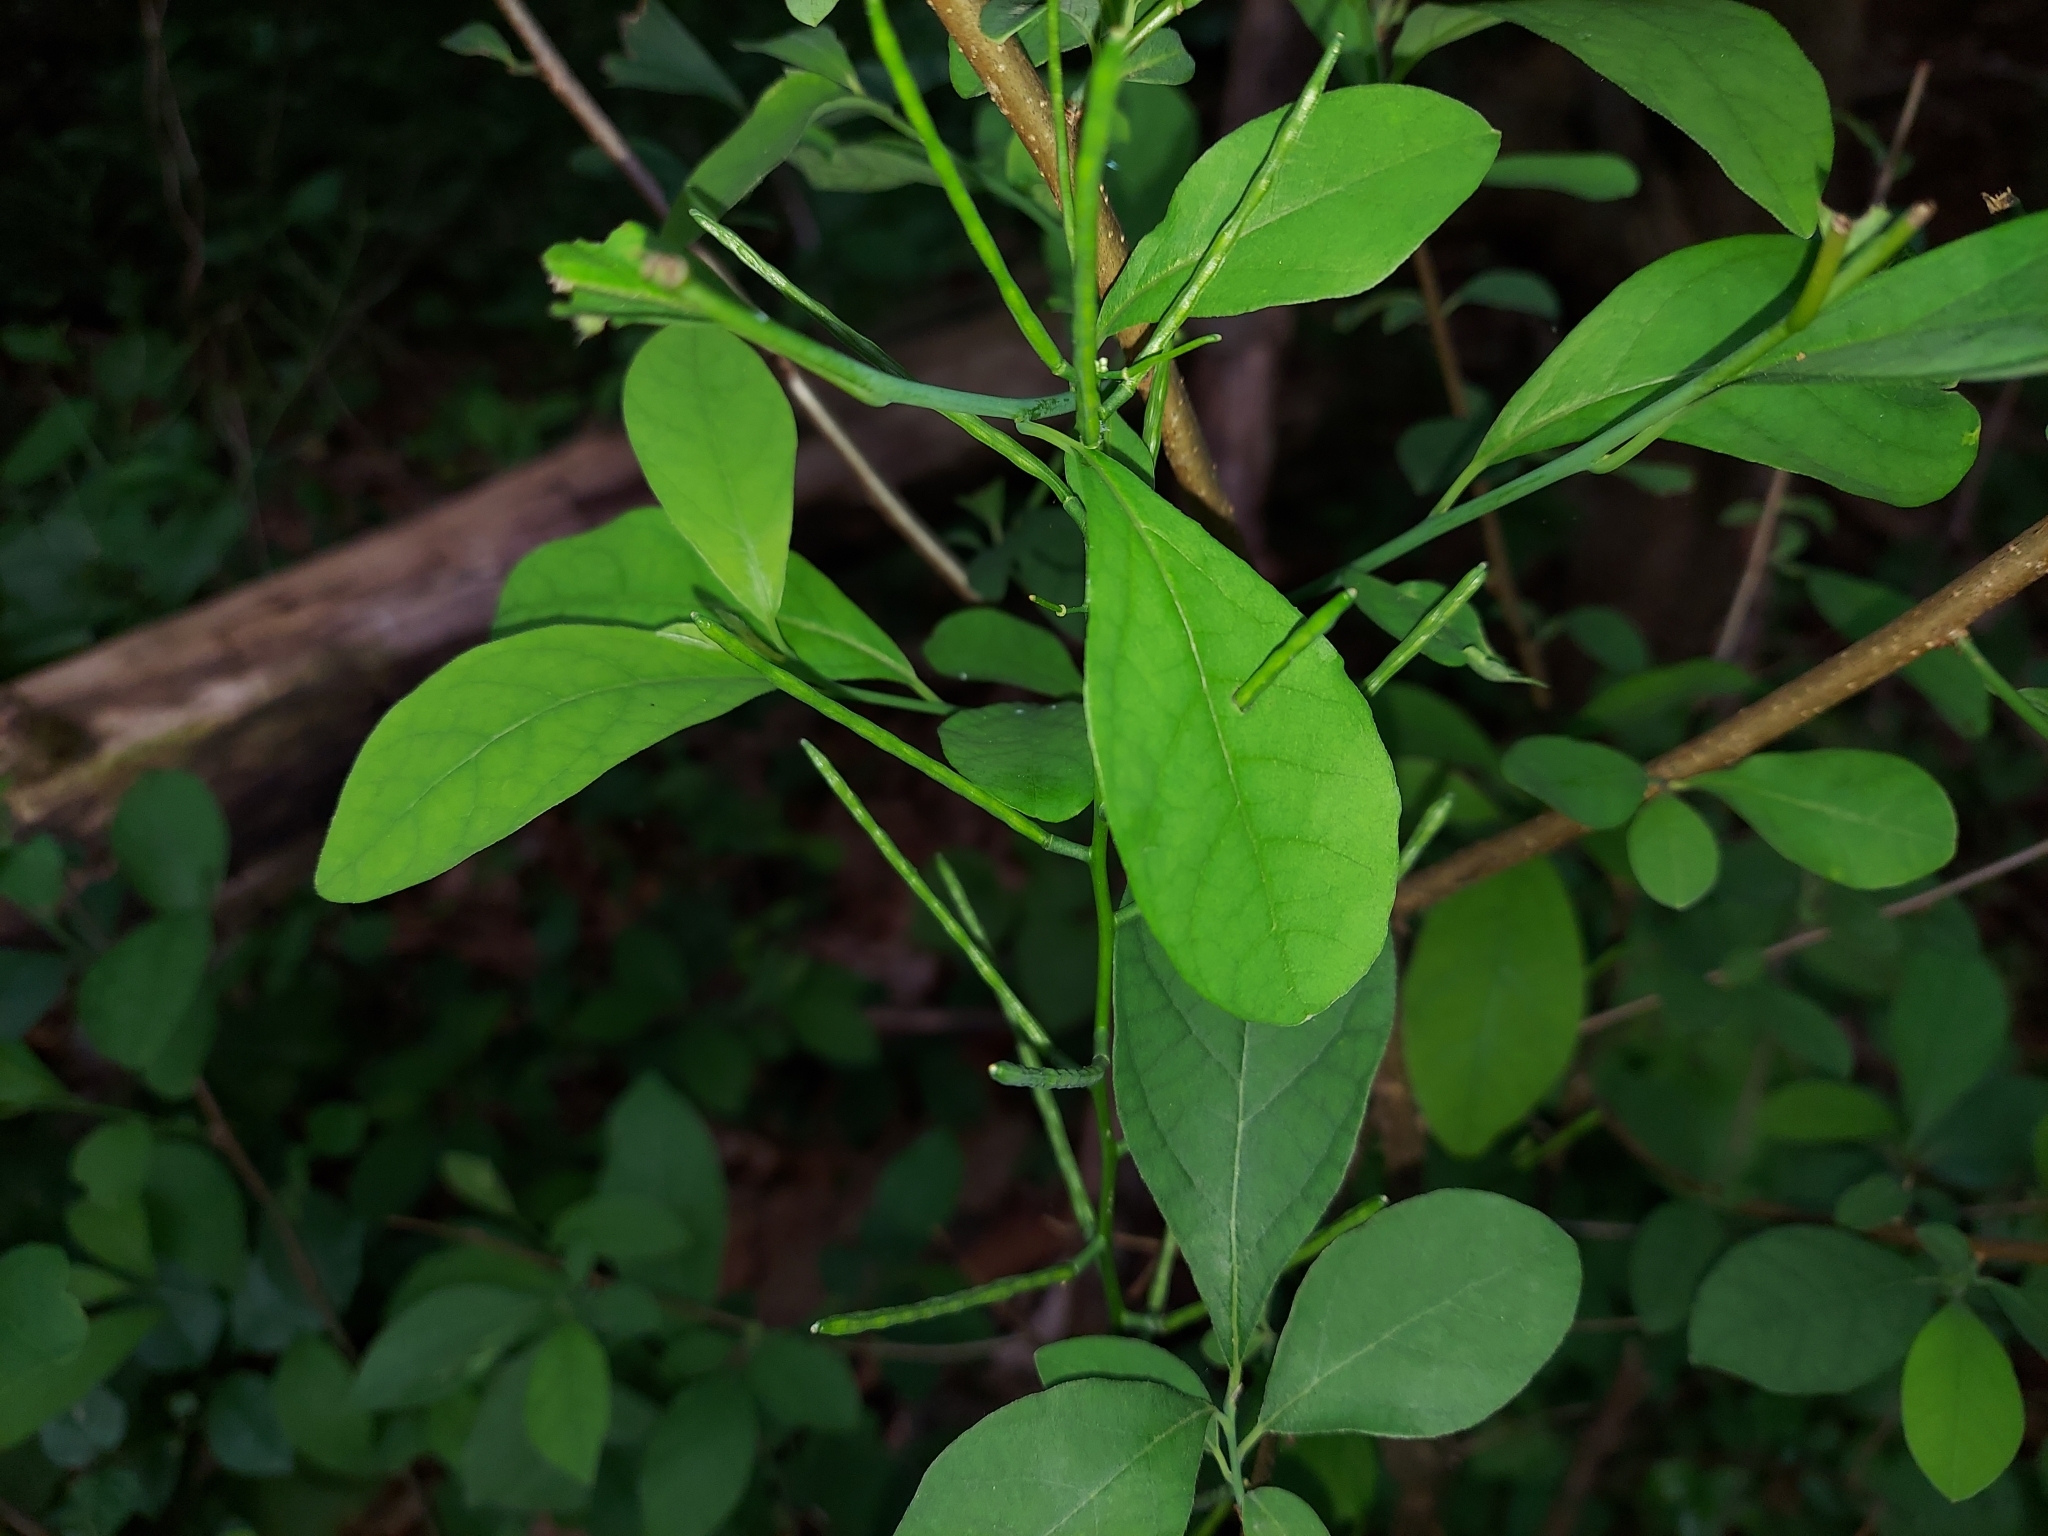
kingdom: Plantae
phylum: Tracheophyta
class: Magnoliopsida
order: Brassicales
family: Brassicaceae
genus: Alliaria
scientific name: Alliaria petiolata
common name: Garlic mustard
